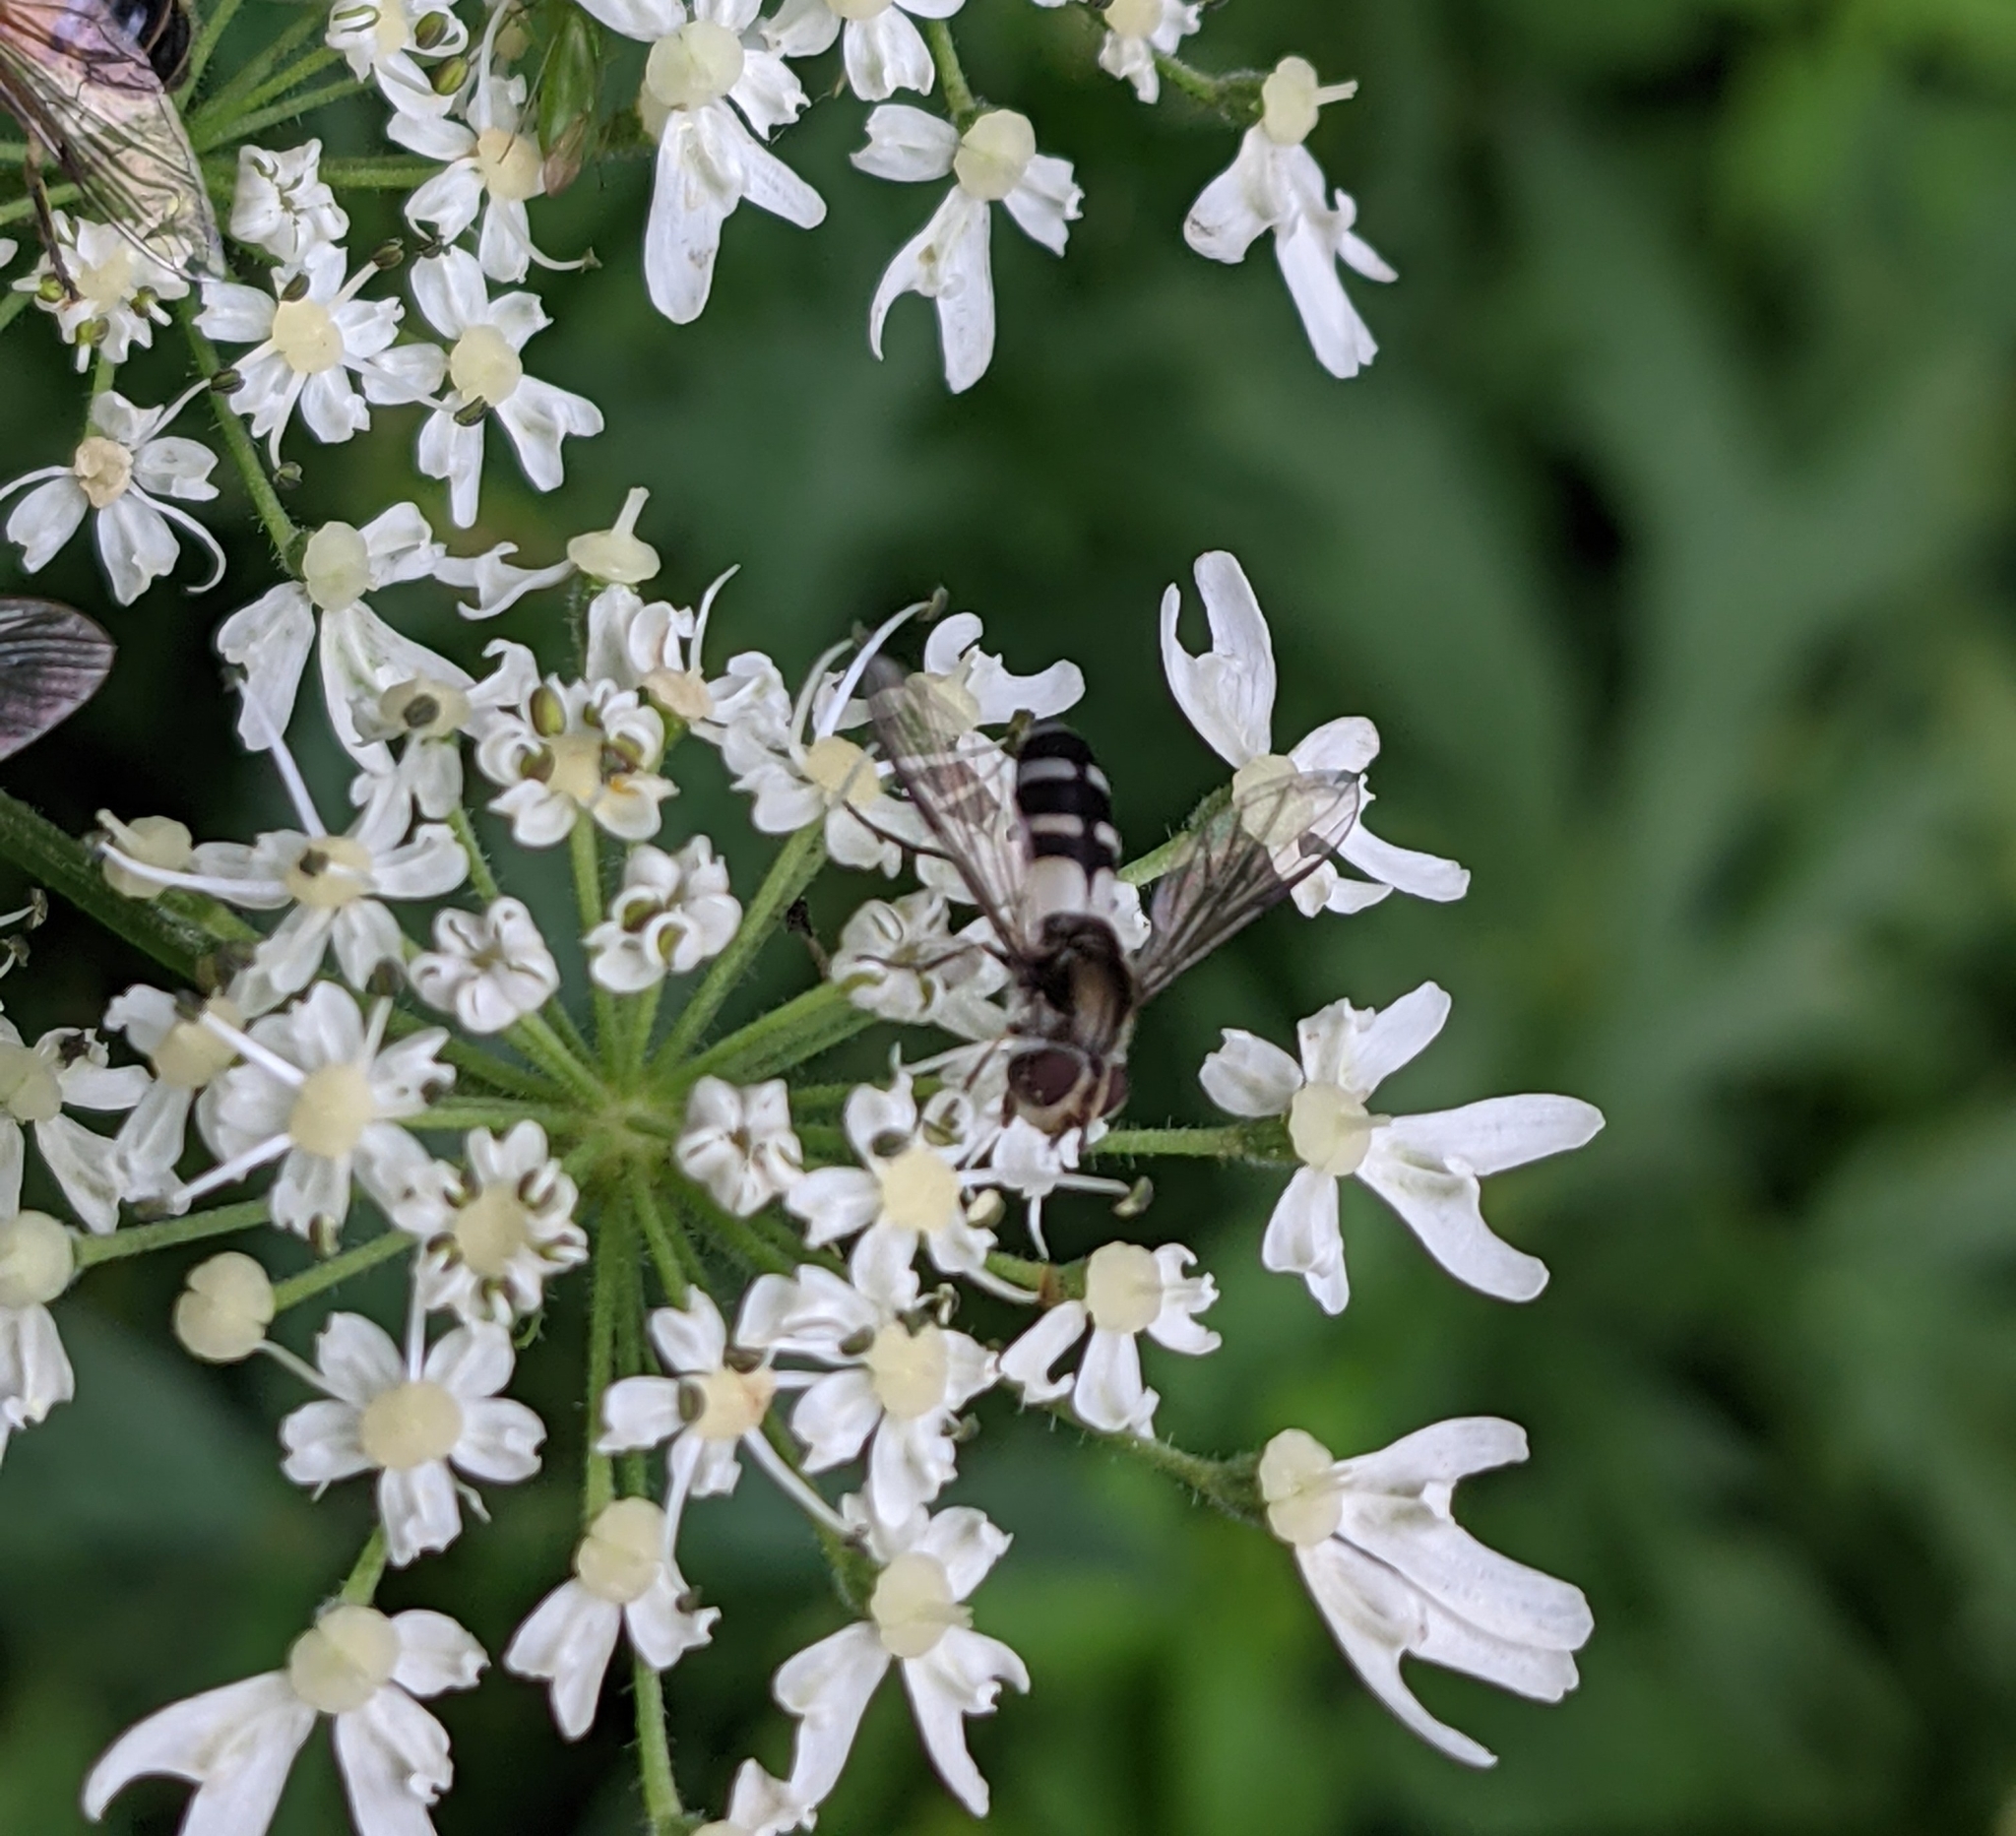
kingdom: Animalia
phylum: Arthropoda
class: Insecta
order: Diptera
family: Syrphidae
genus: Leucozona
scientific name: Leucozona laternaria
